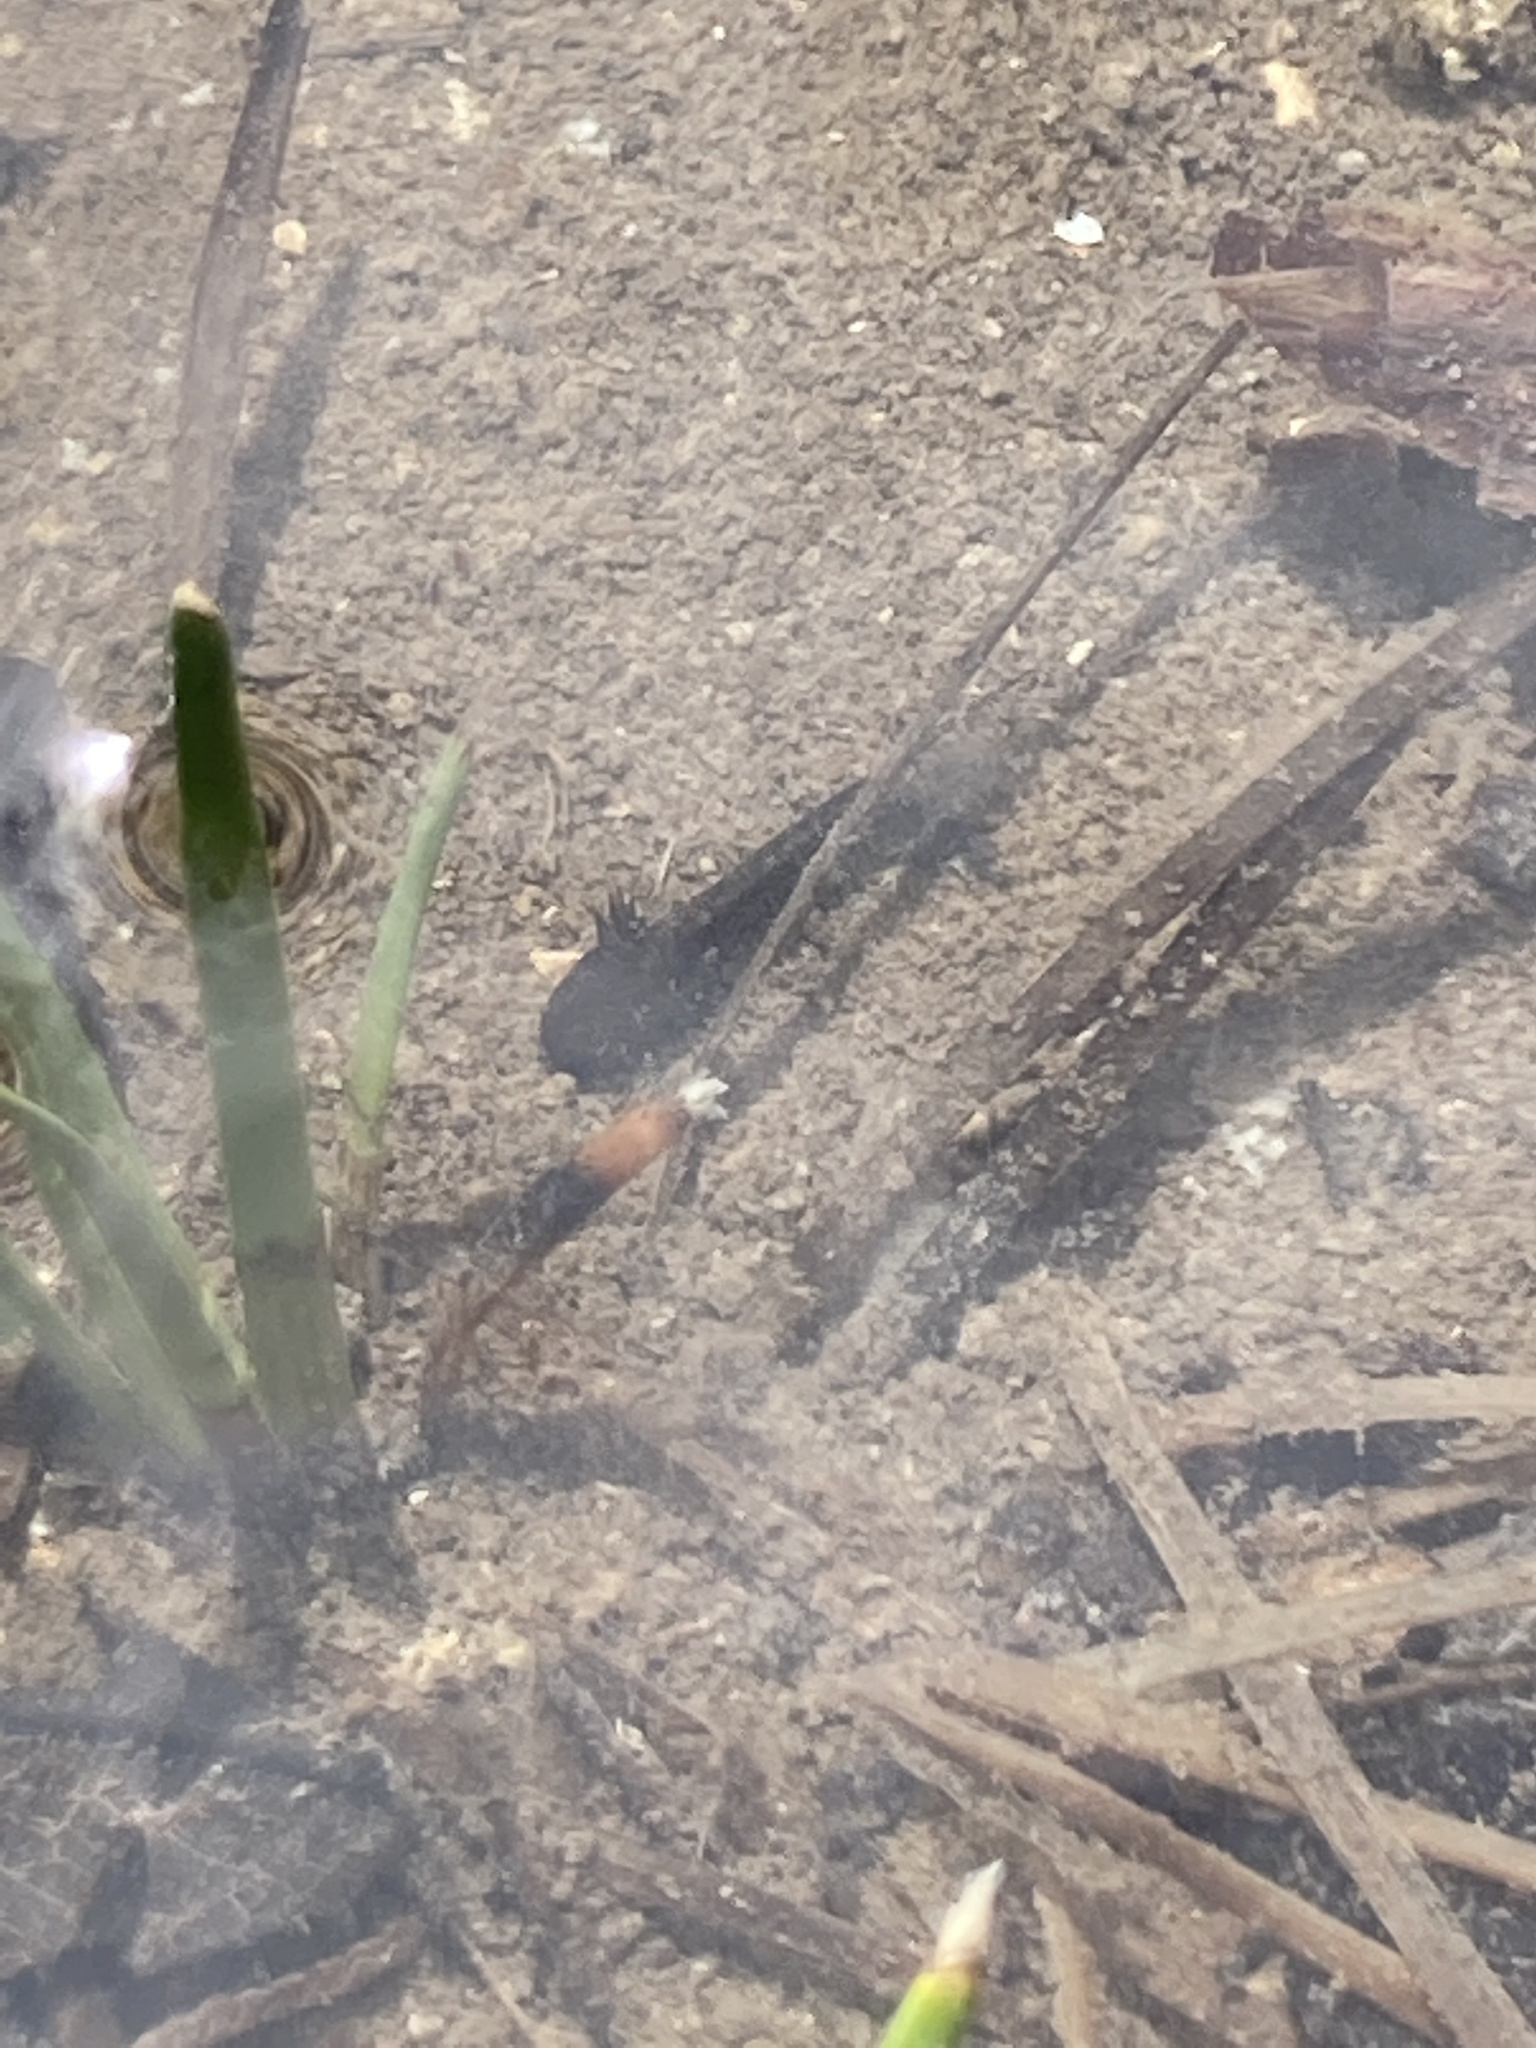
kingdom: Animalia
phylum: Chordata
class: Amphibia
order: Caudata
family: Ambystomatidae
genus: Ambystoma
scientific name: Ambystoma barbouri
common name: Streamside salamander
